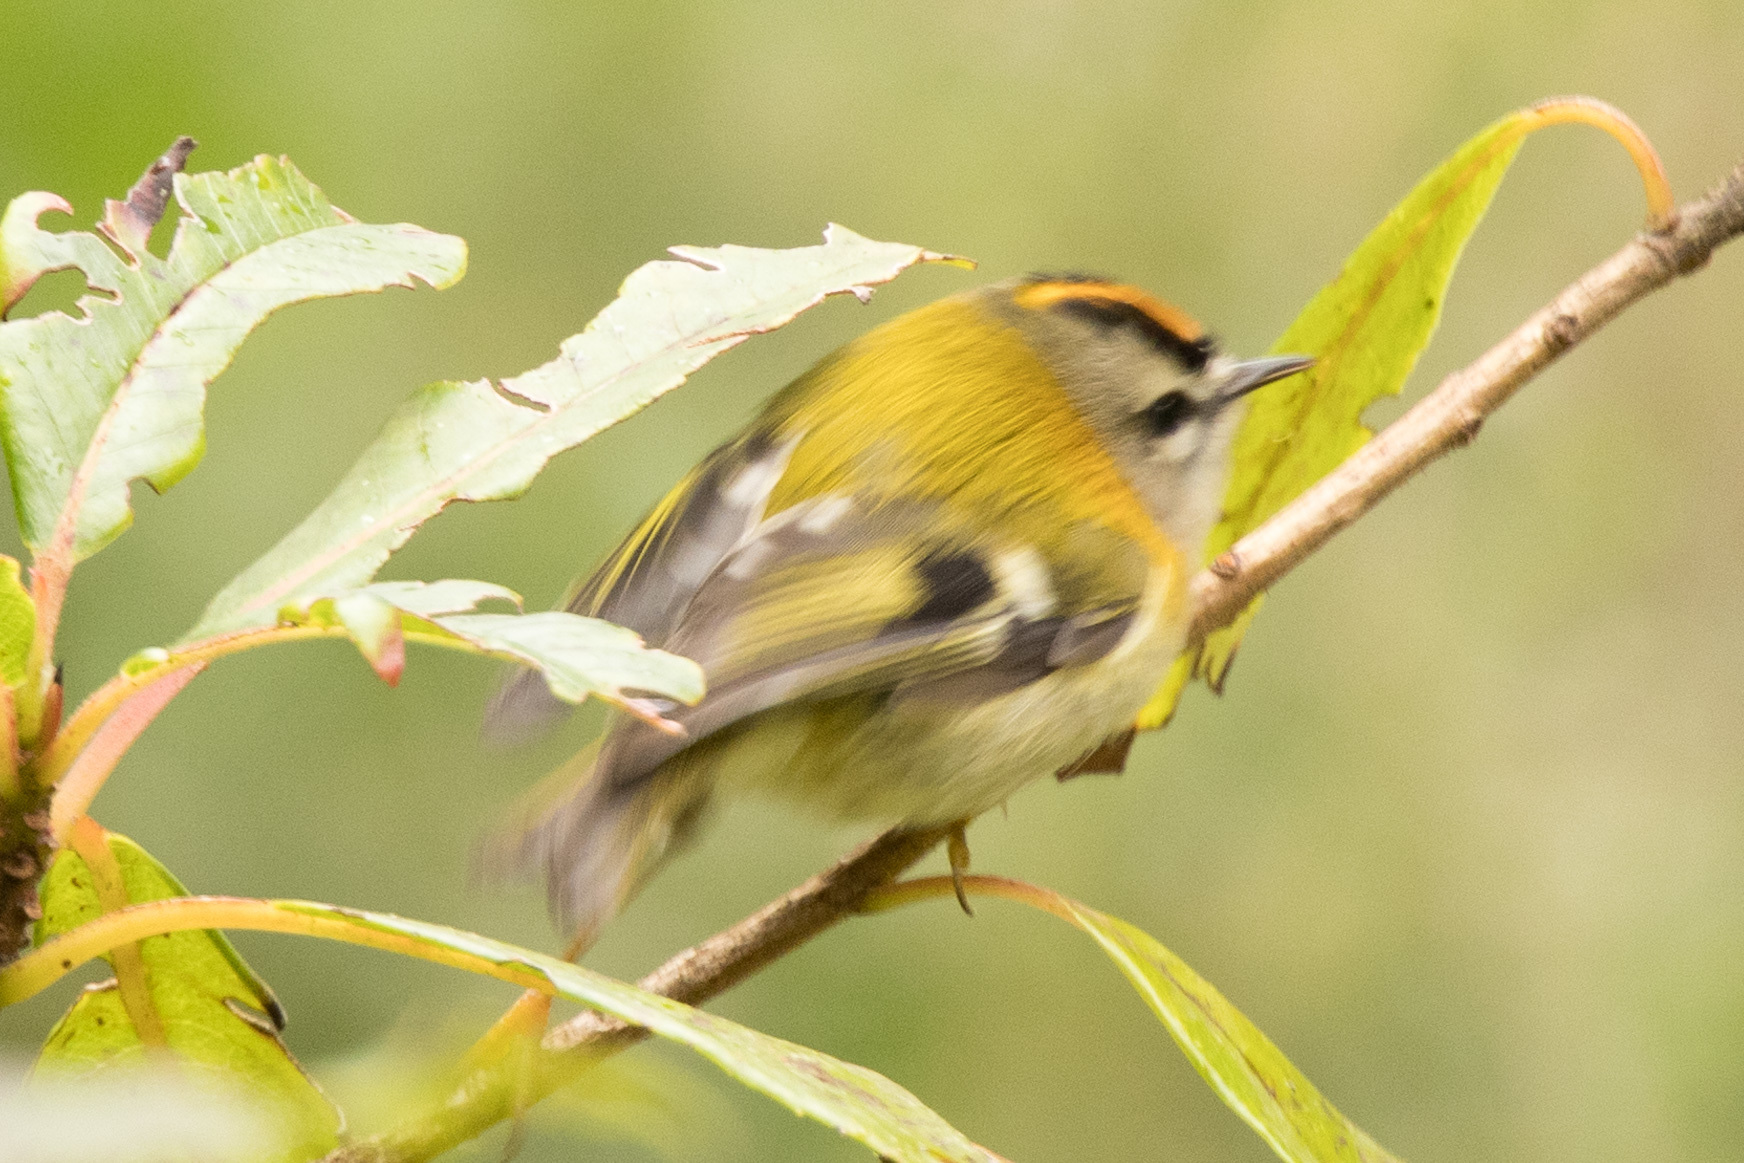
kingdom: Animalia
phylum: Chordata
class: Aves
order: Passeriformes
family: Regulidae
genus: Regulus
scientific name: Regulus madeirensis
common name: Madeira firecrest
